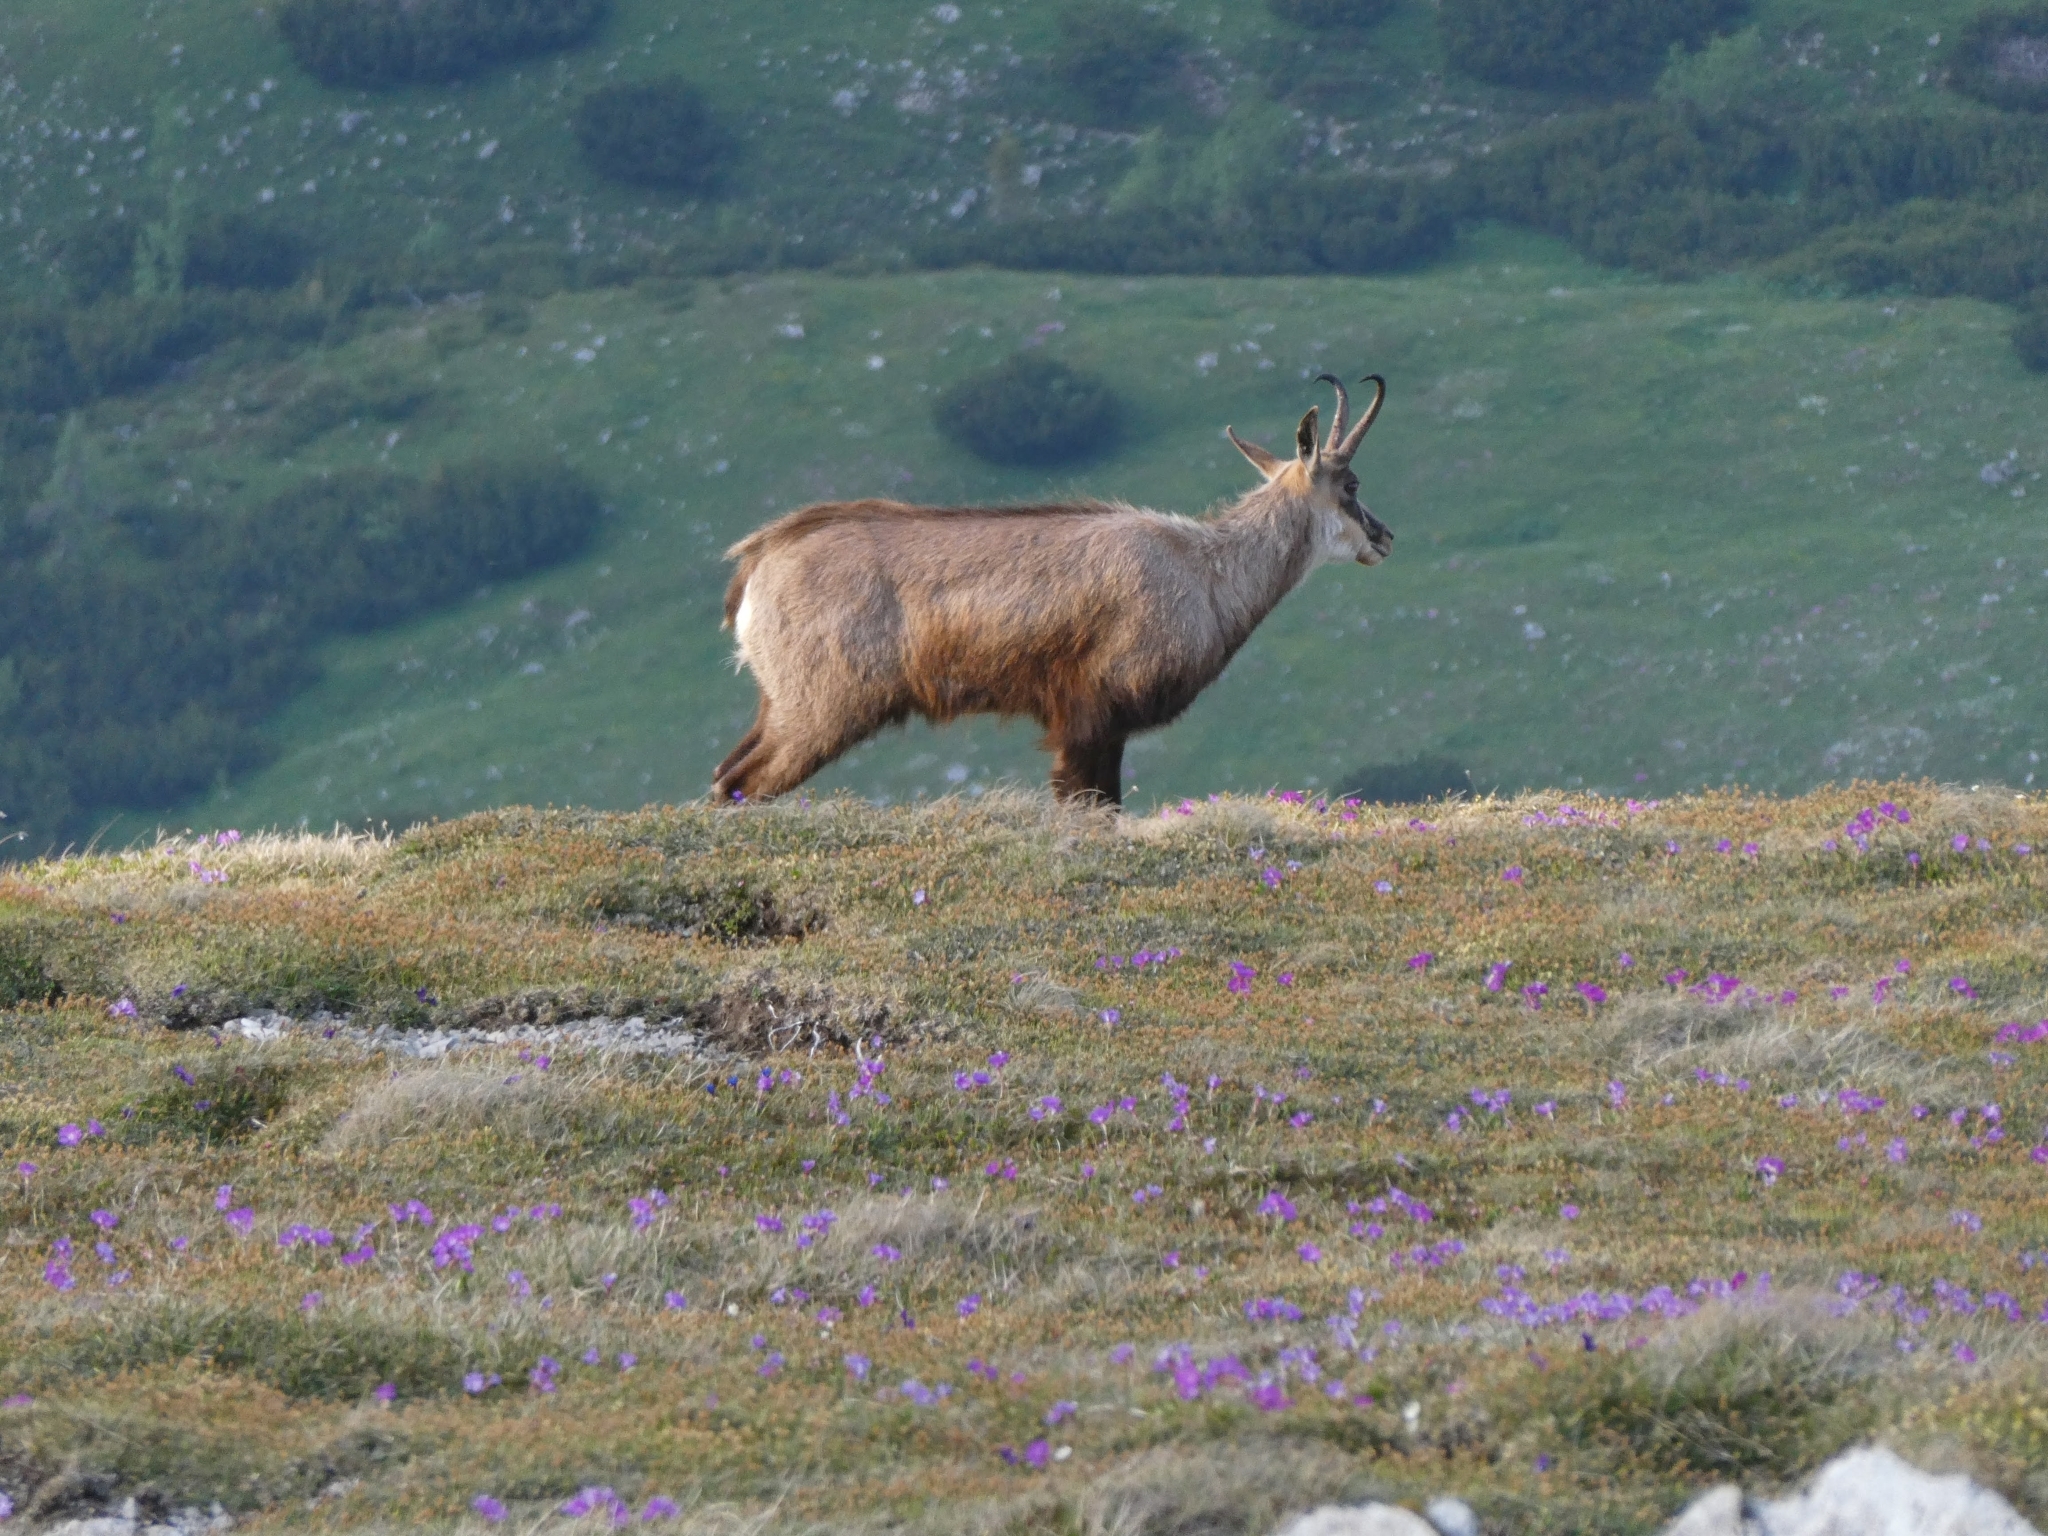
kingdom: Animalia
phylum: Chordata
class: Mammalia
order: Artiodactyla
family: Bovidae
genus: Rupicapra
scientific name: Rupicapra rupicapra
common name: Chamois
